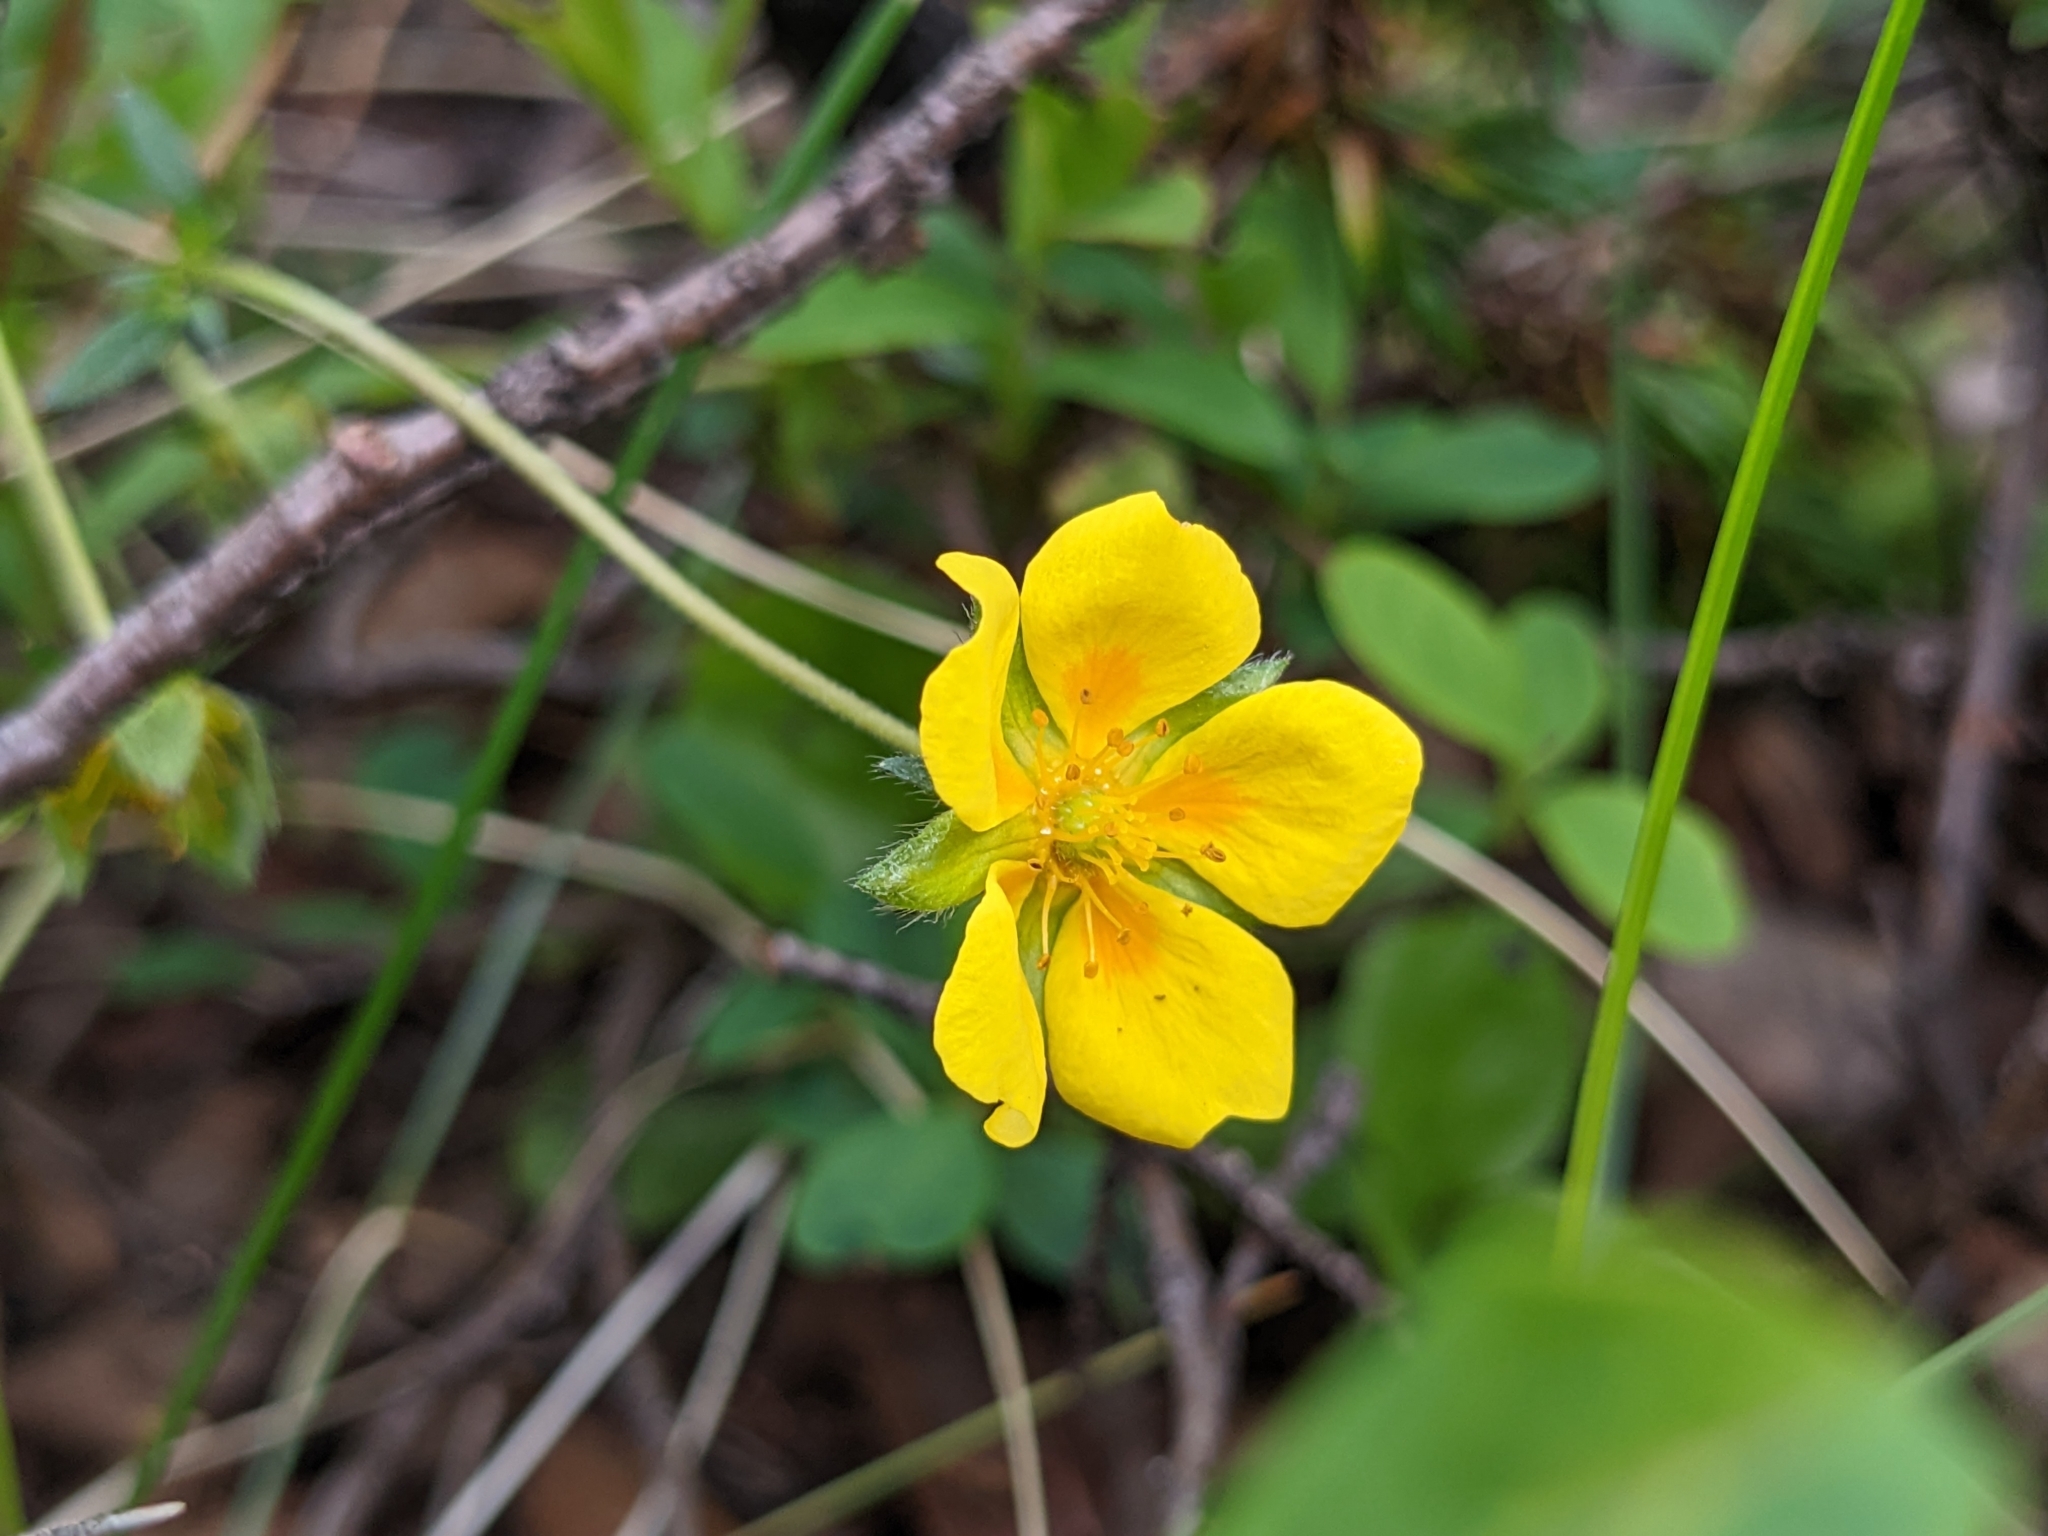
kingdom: Plantae
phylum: Tracheophyta
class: Magnoliopsida
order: Rosales
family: Rosaceae
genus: Potentilla
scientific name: Potentilla crantzii
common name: Alpine cinquefoil
